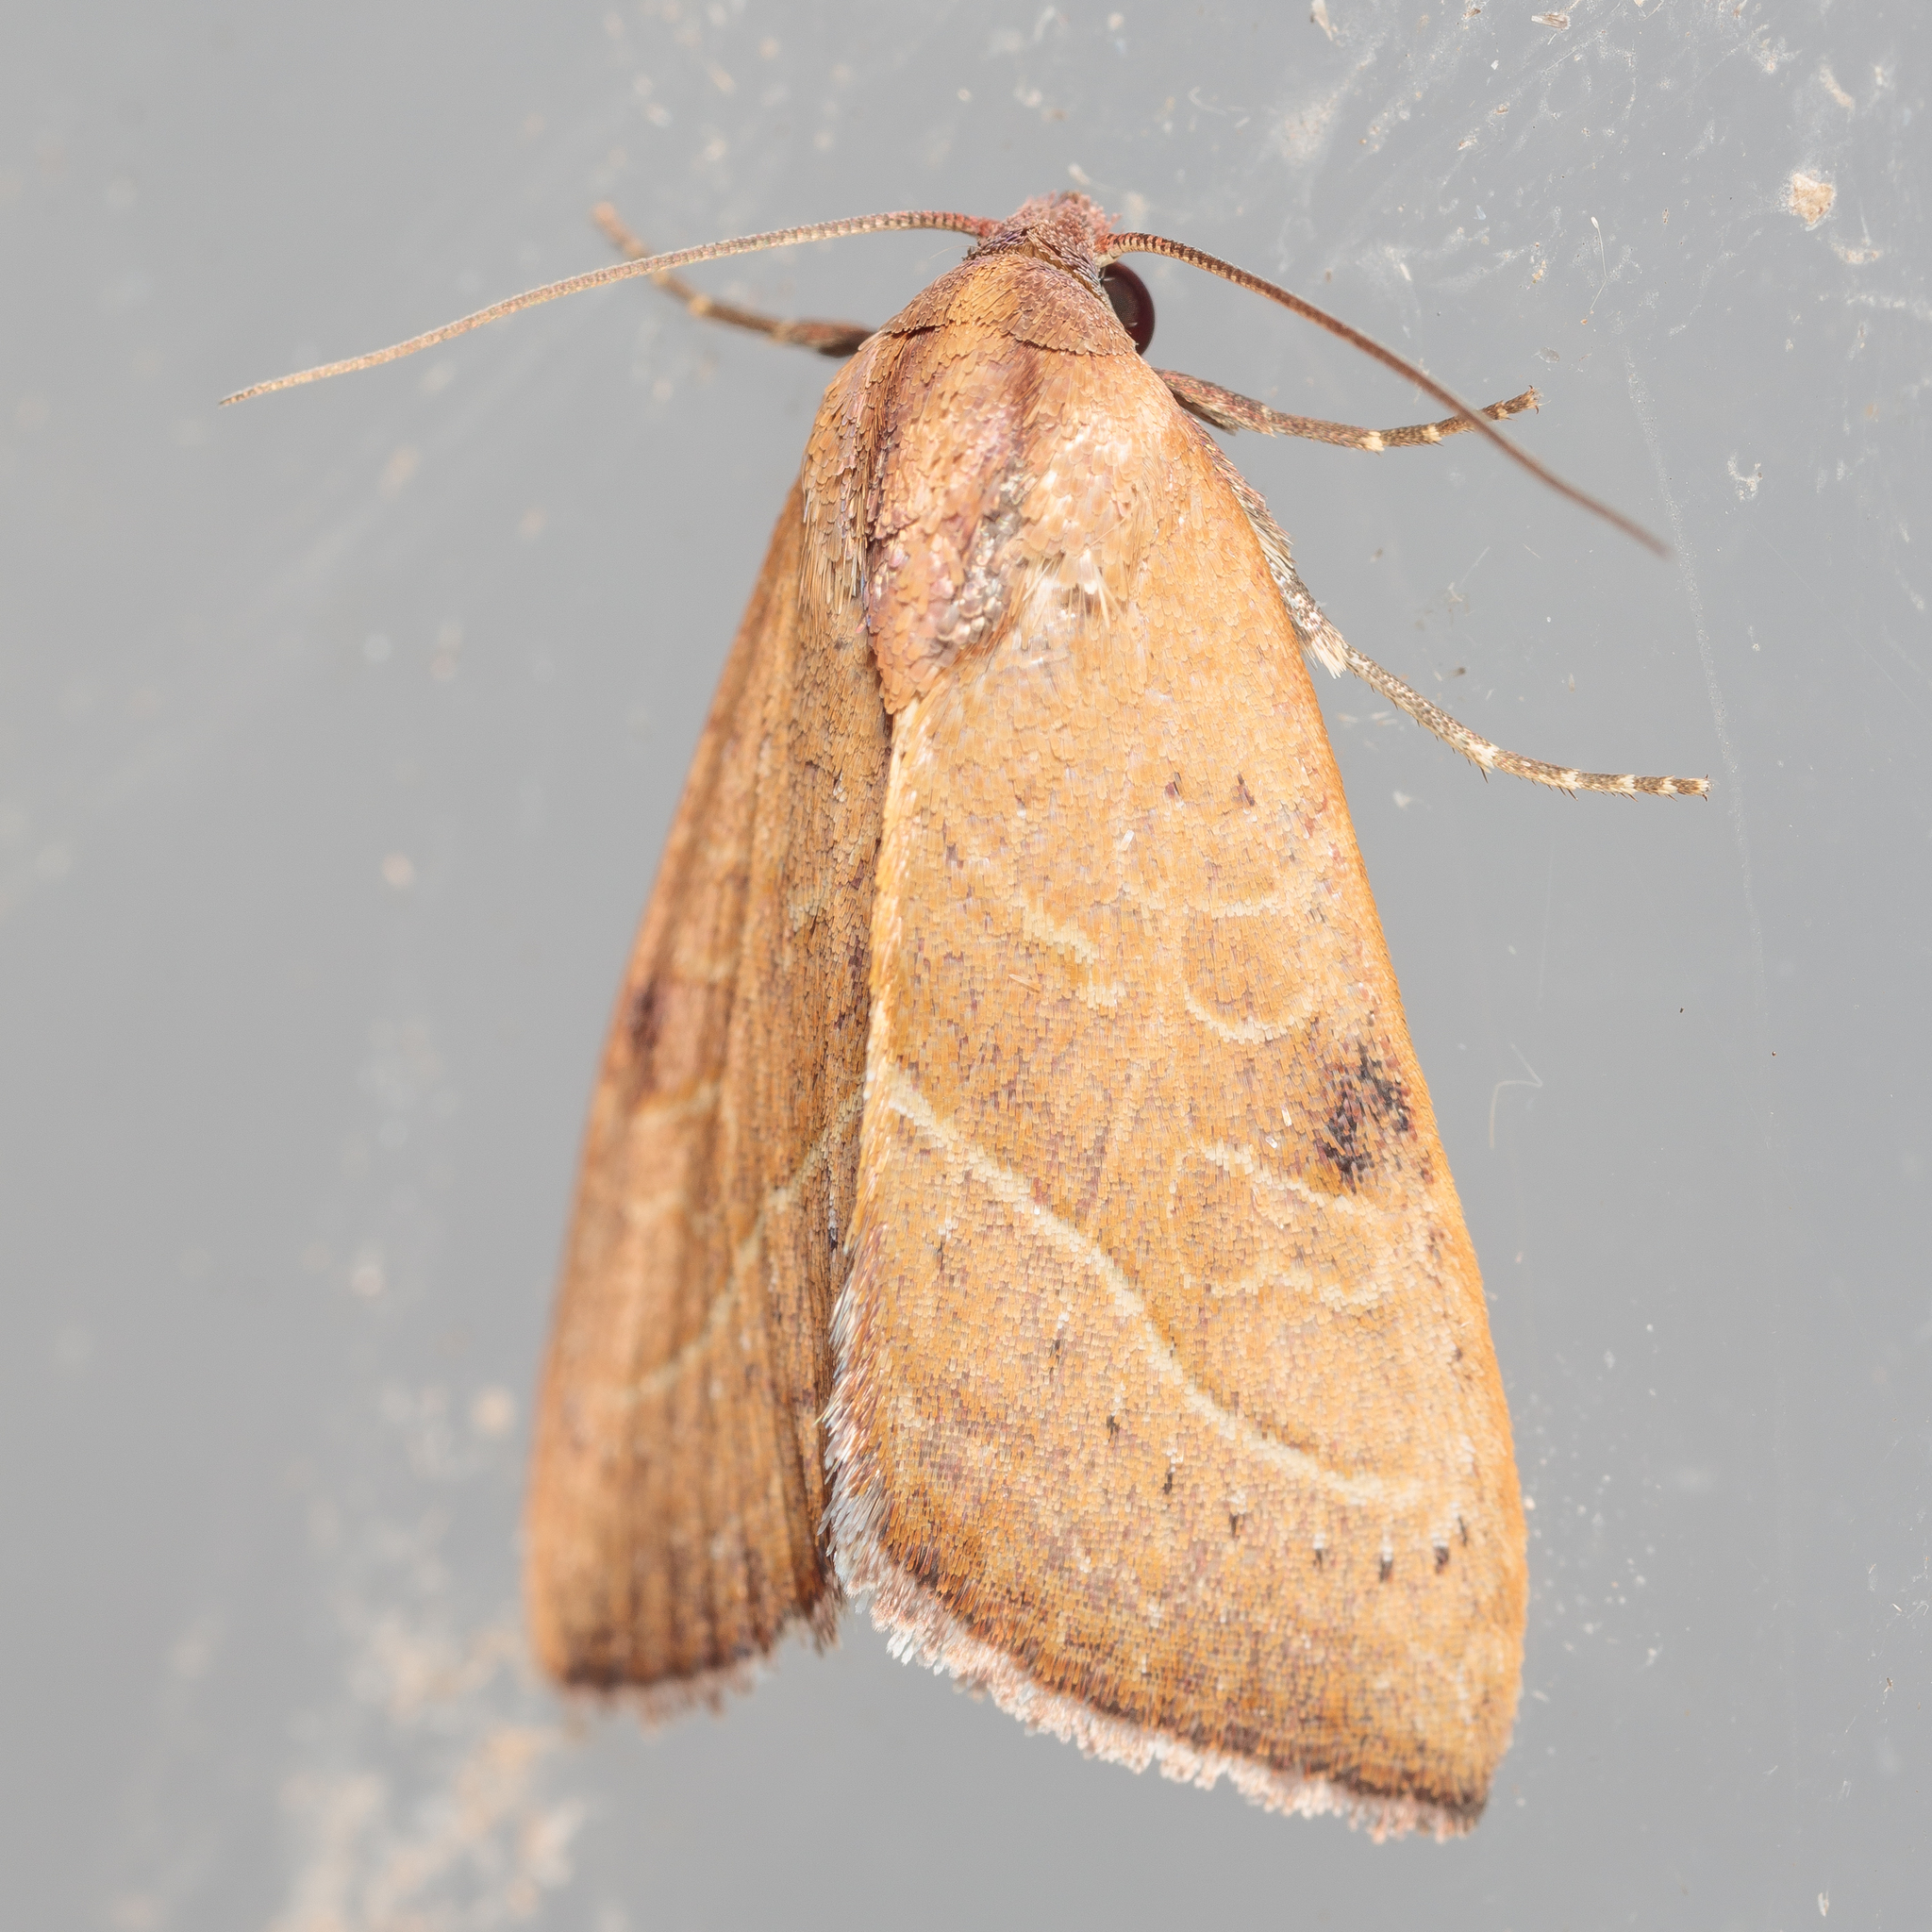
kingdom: Animalia
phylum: Arthropoda
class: Insecta
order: Lepidoptera
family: Noctuidae
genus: Galgula
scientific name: Galgula partita
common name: Wedgeling
